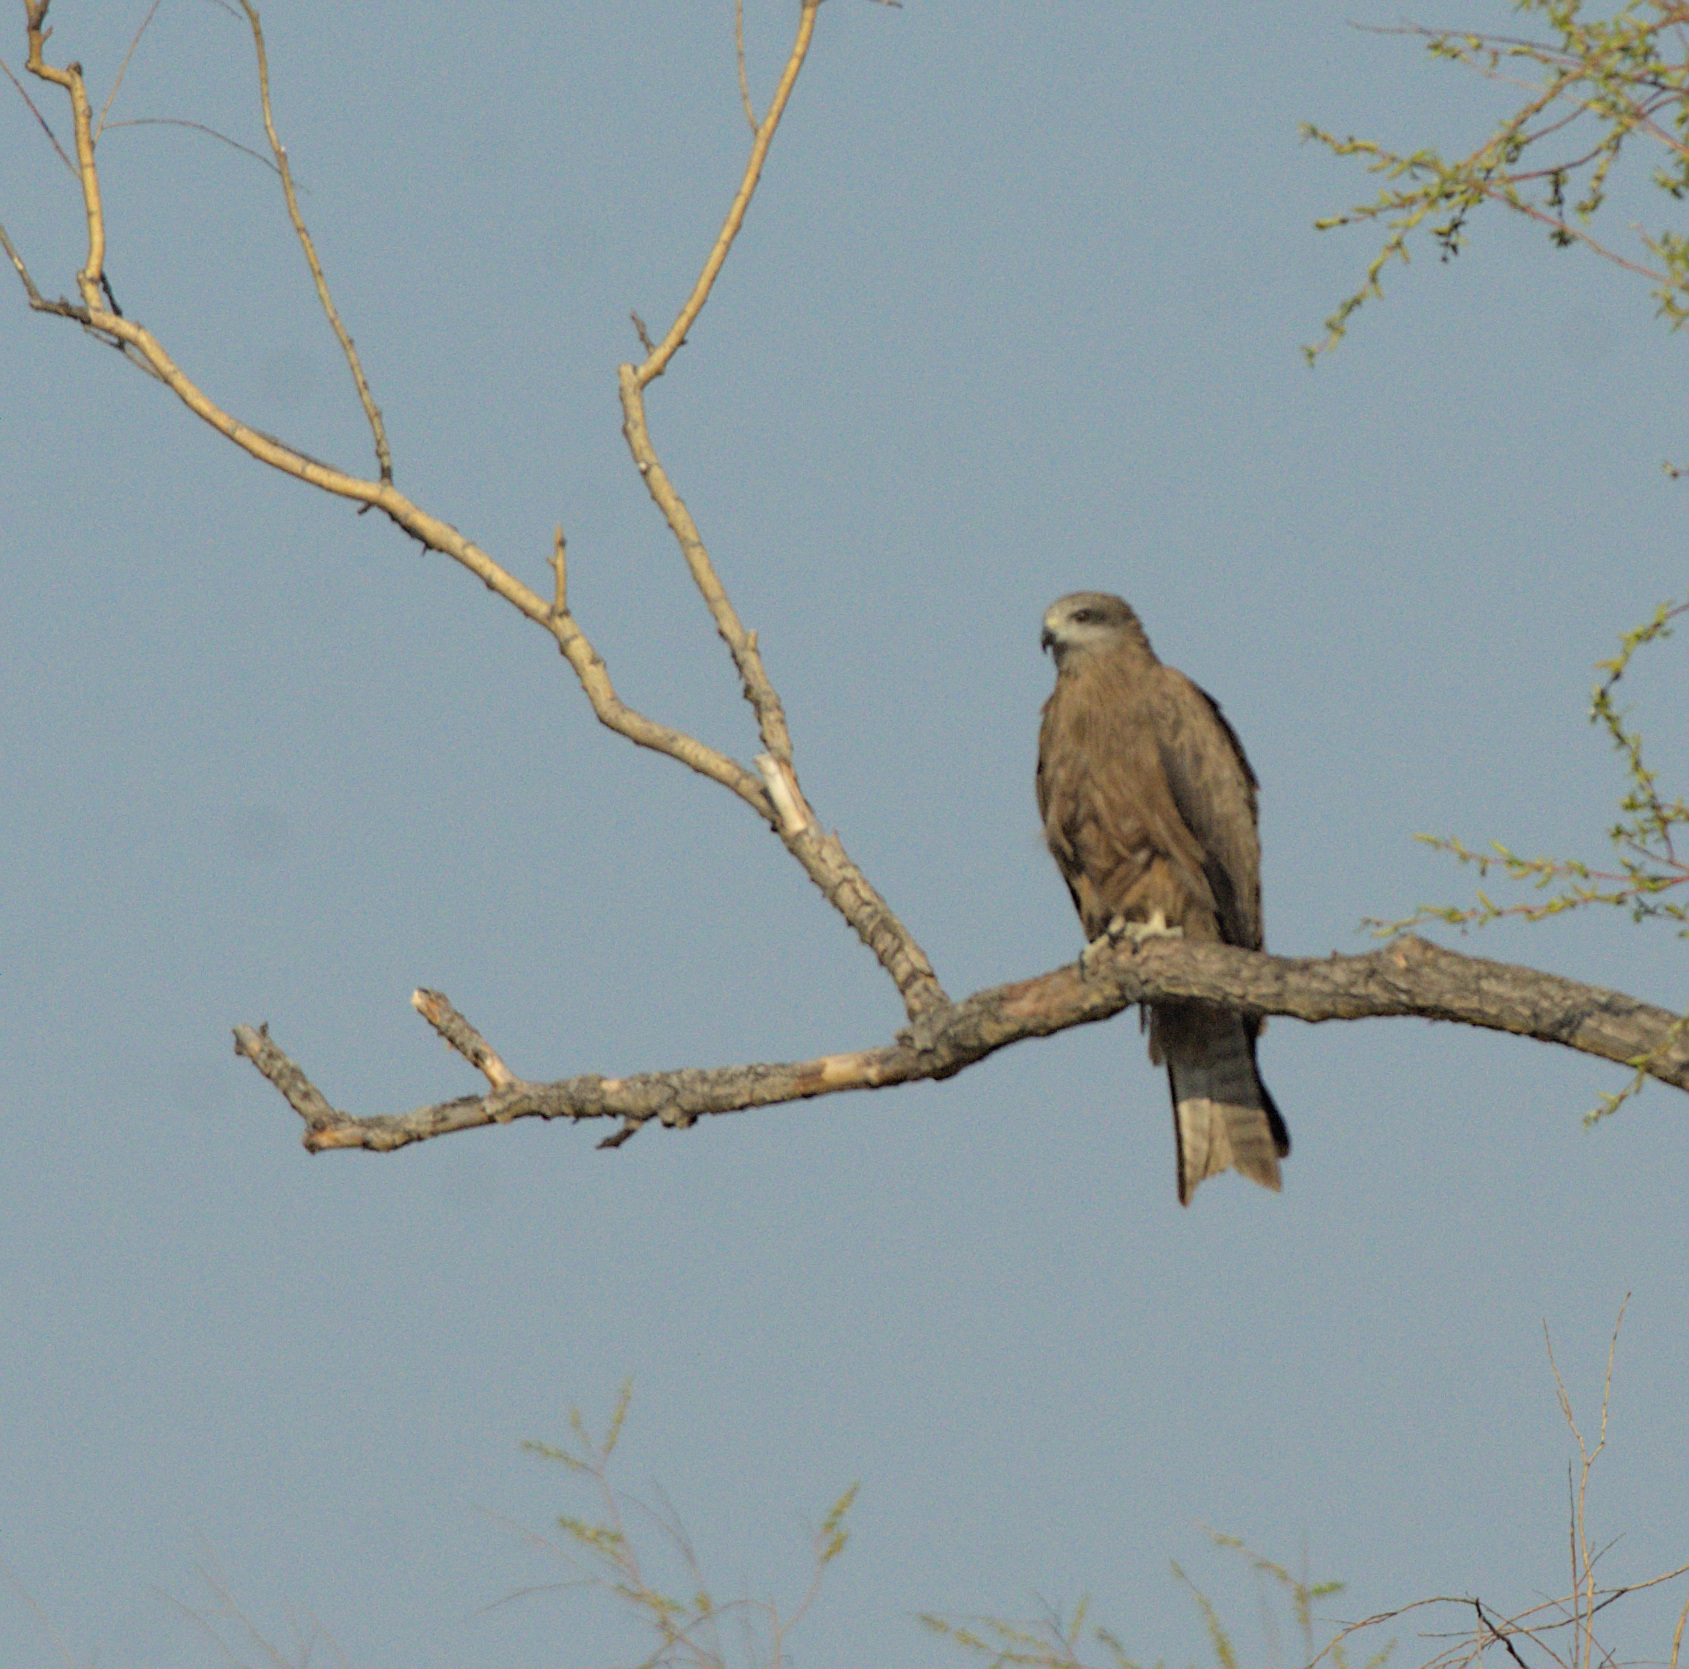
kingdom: Animalia
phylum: Chordata
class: Aves
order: Accipitriformes
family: Accipitridae
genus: Milvus
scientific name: Milvus migrans
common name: Black kite
